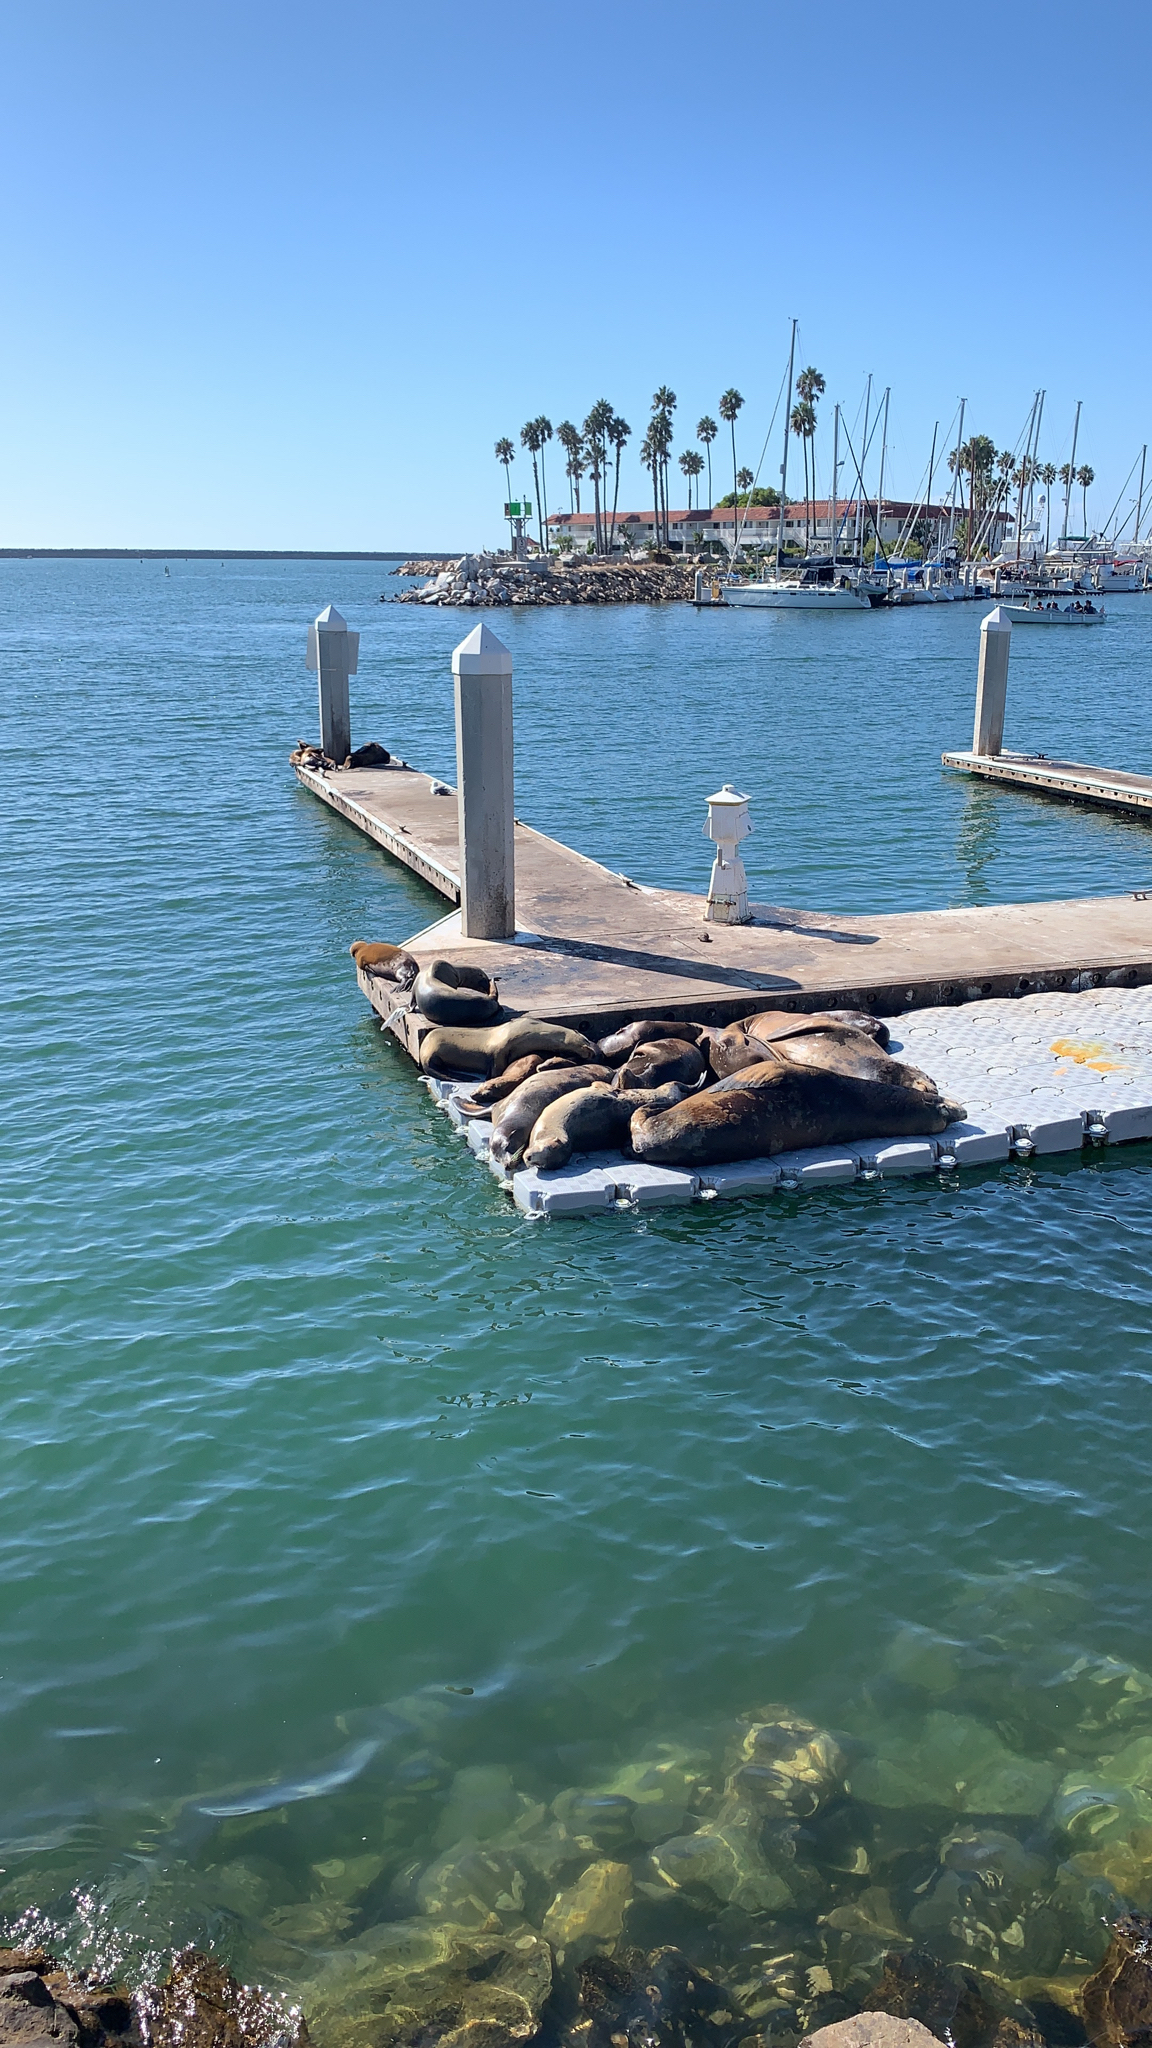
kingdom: Animalia
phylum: Chordata
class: Mammalia
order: Carnivora
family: Otariidae
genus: Zalophus
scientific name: Zalophus californianus
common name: California sea lion
